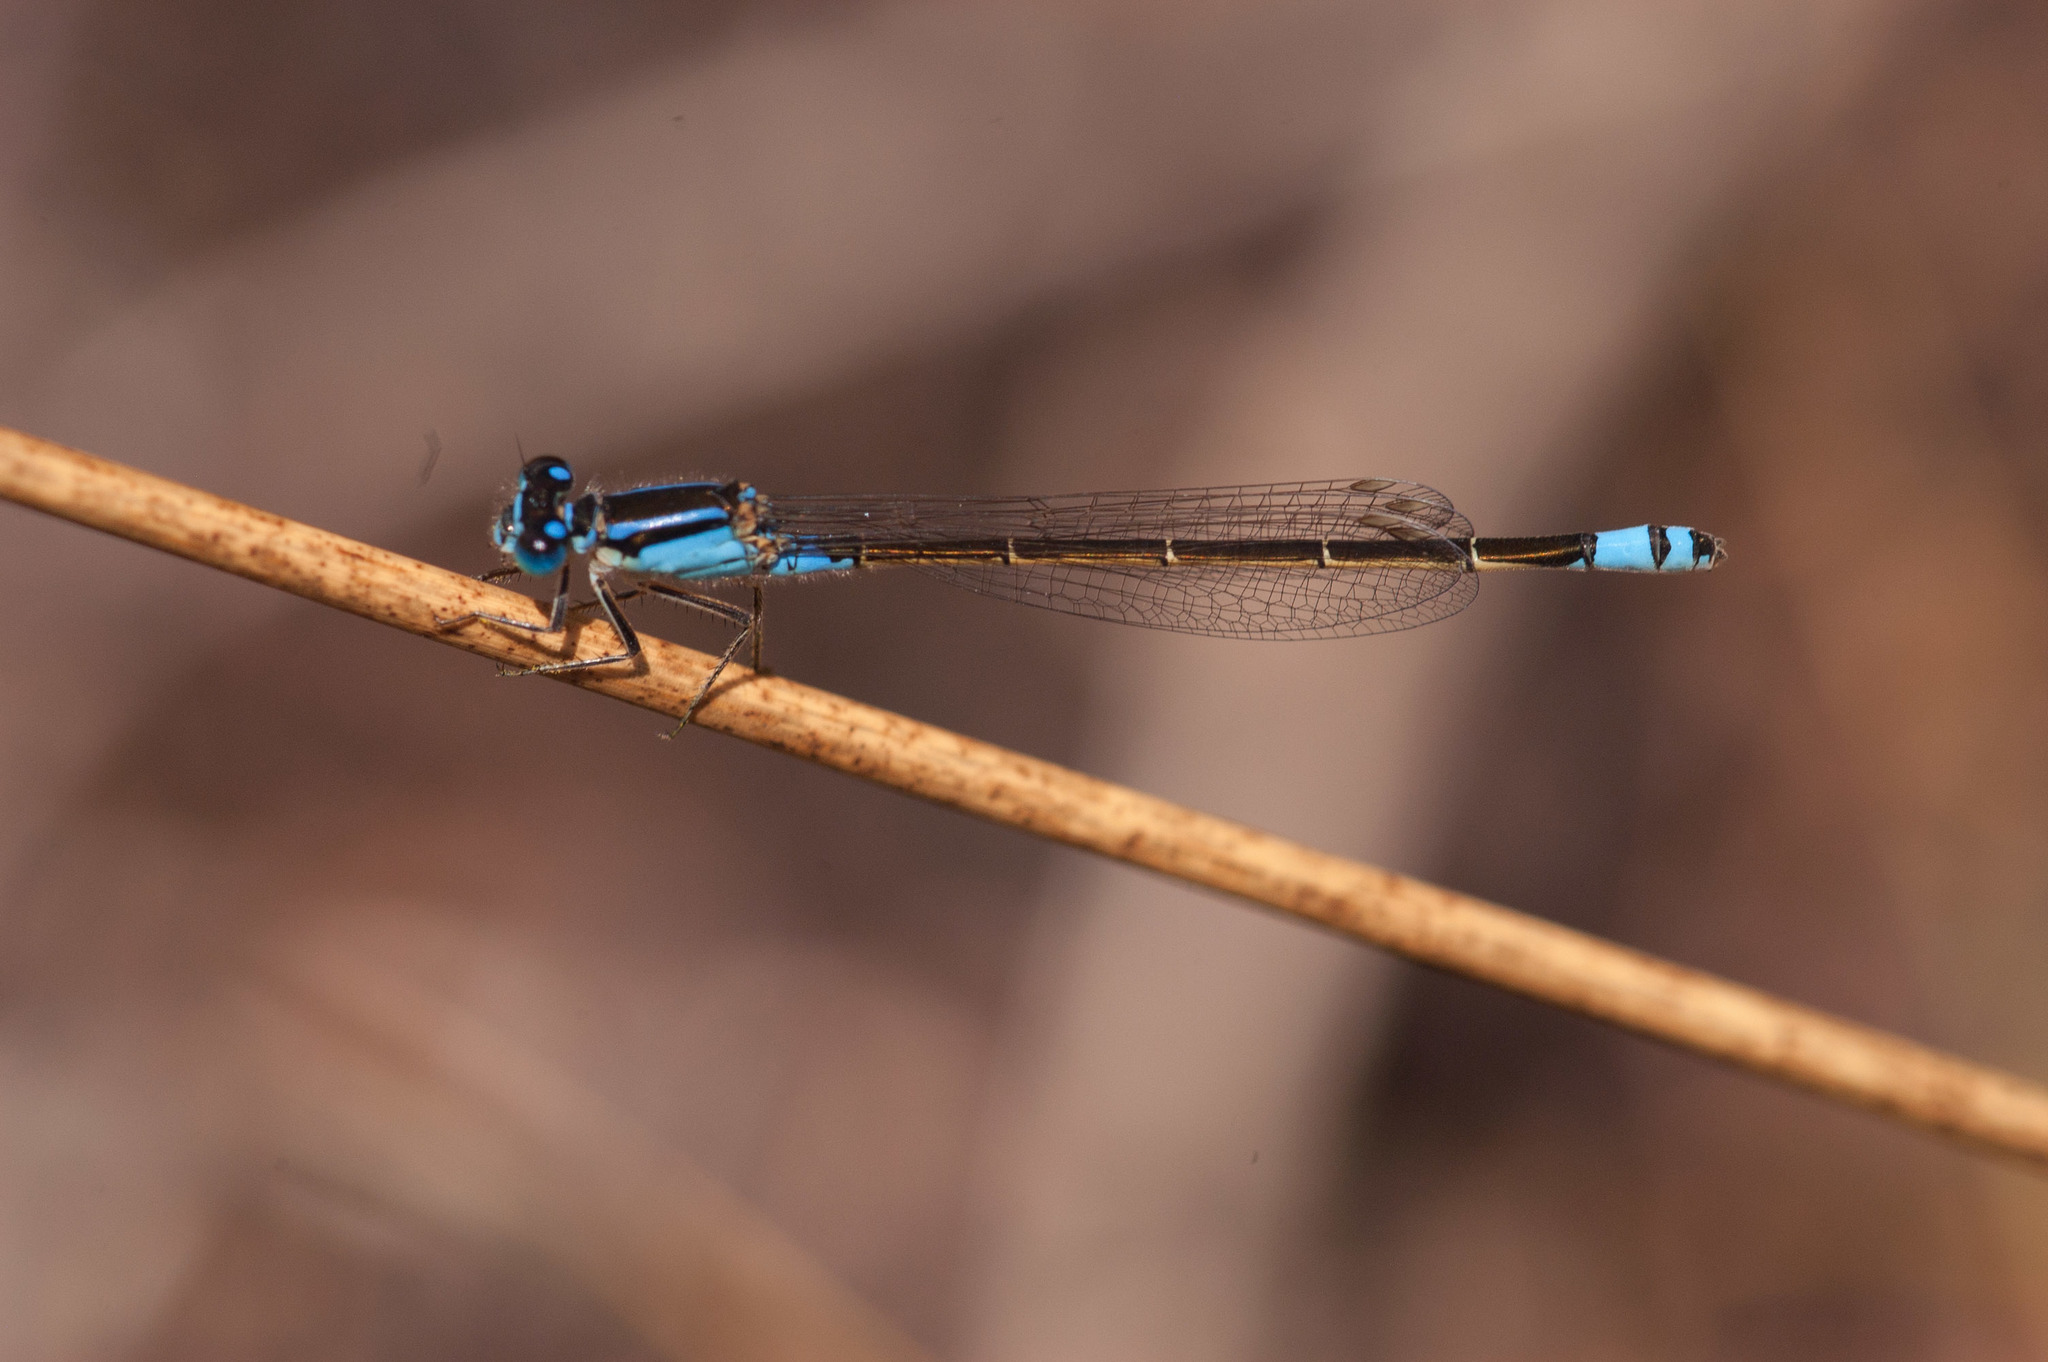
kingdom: Animalia
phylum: Arthropoda
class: Insecta
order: Odonata
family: Coenagrionidae
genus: Ischnura
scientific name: Ischnura heterosticta
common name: Common bluetail
